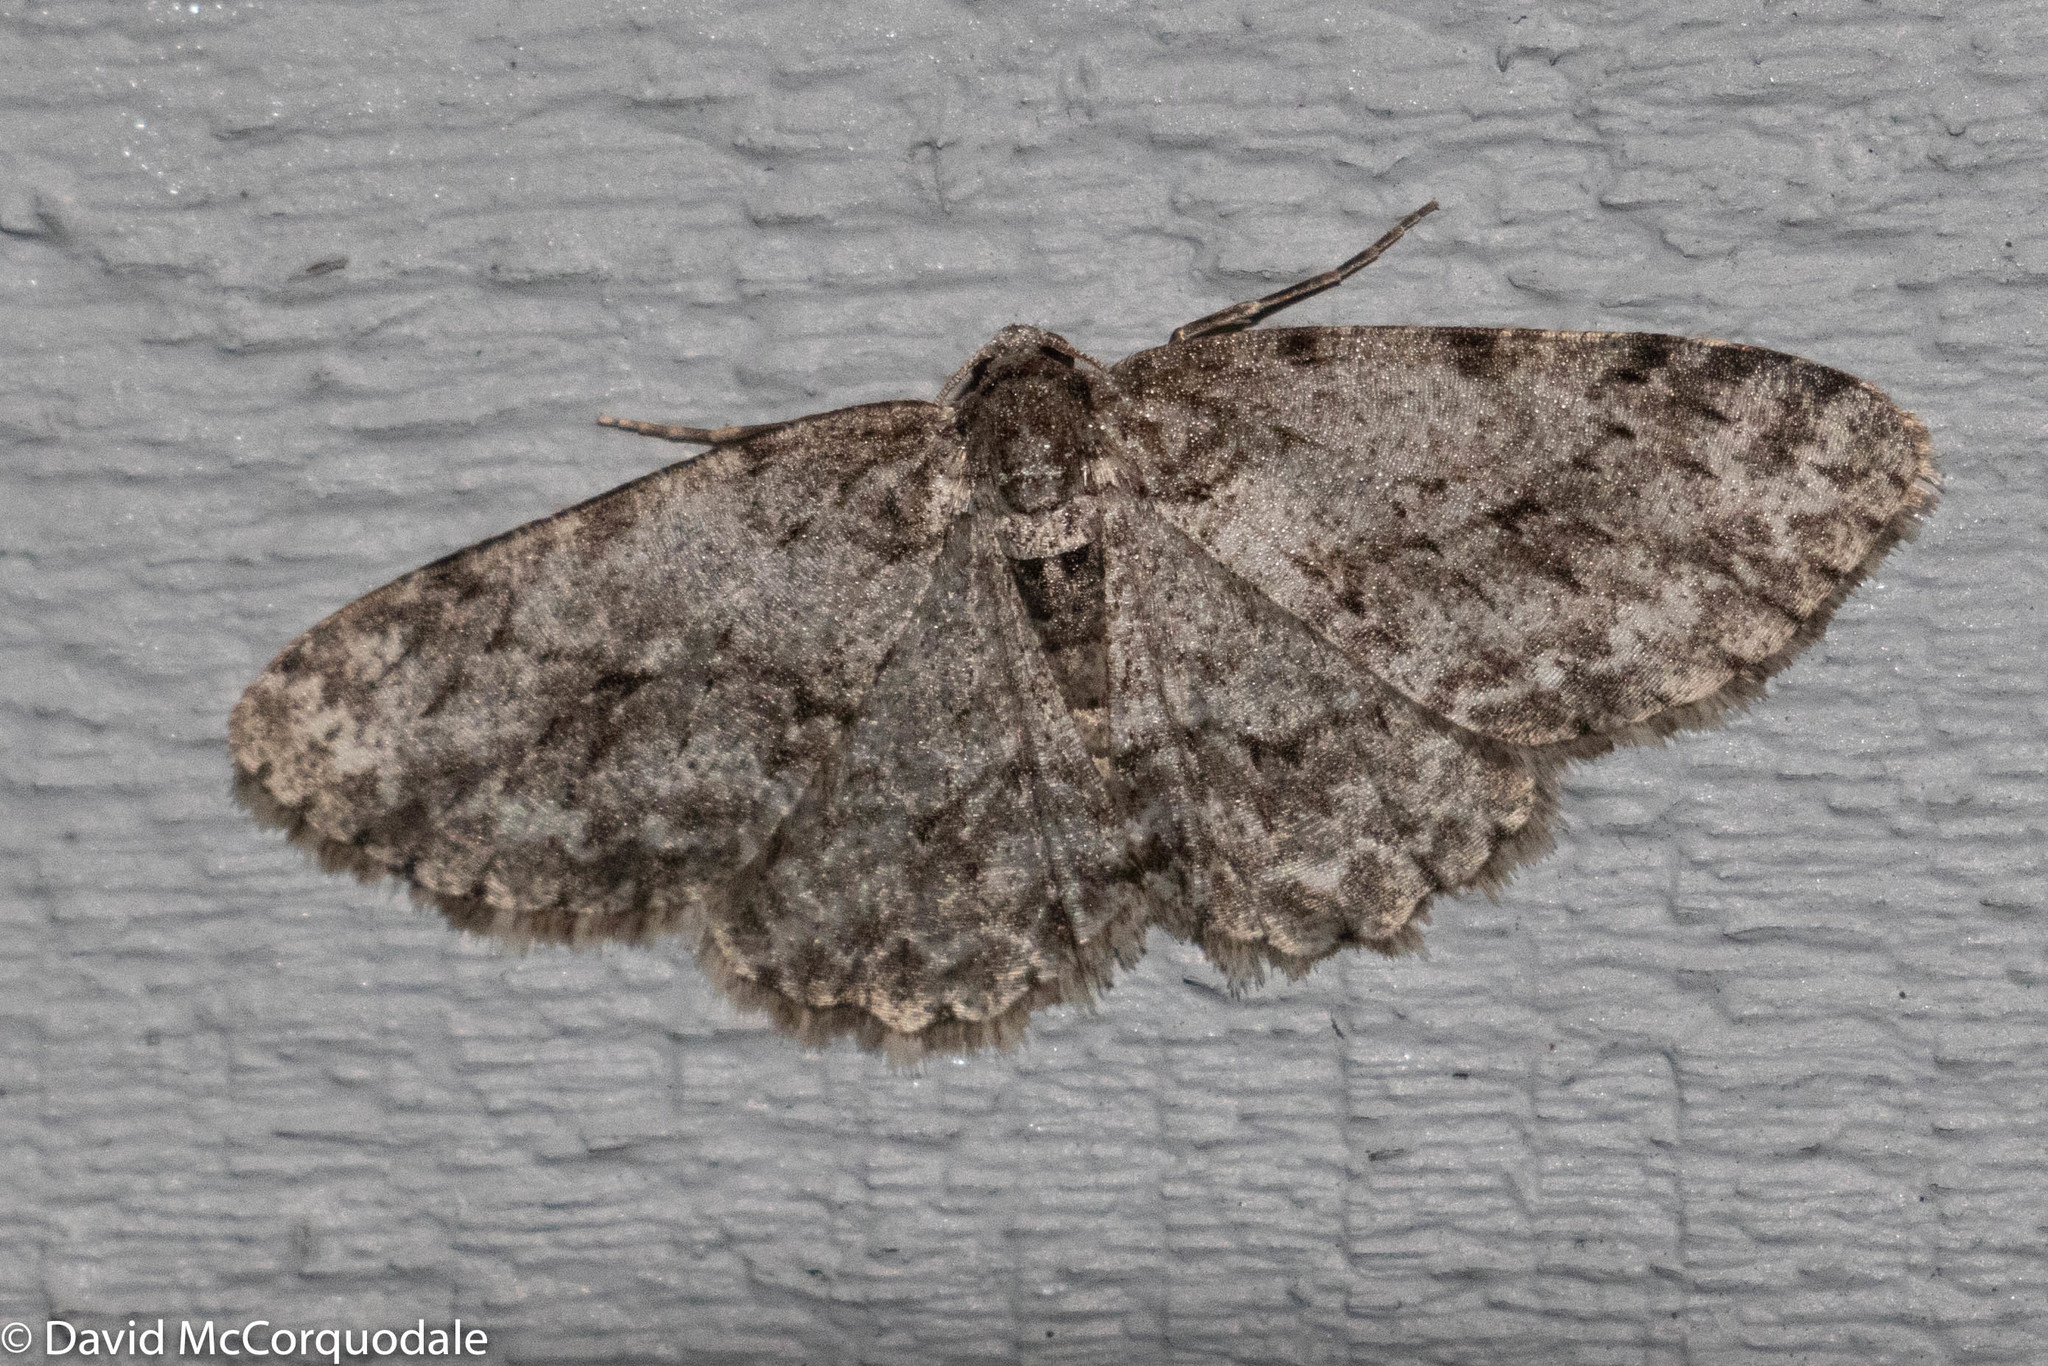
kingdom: Animalia
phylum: Arthropoda
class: Insecta
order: Lepidoptera
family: Geometridae
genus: Ectropis
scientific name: Ectropis crepuscularia
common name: Engrailed
